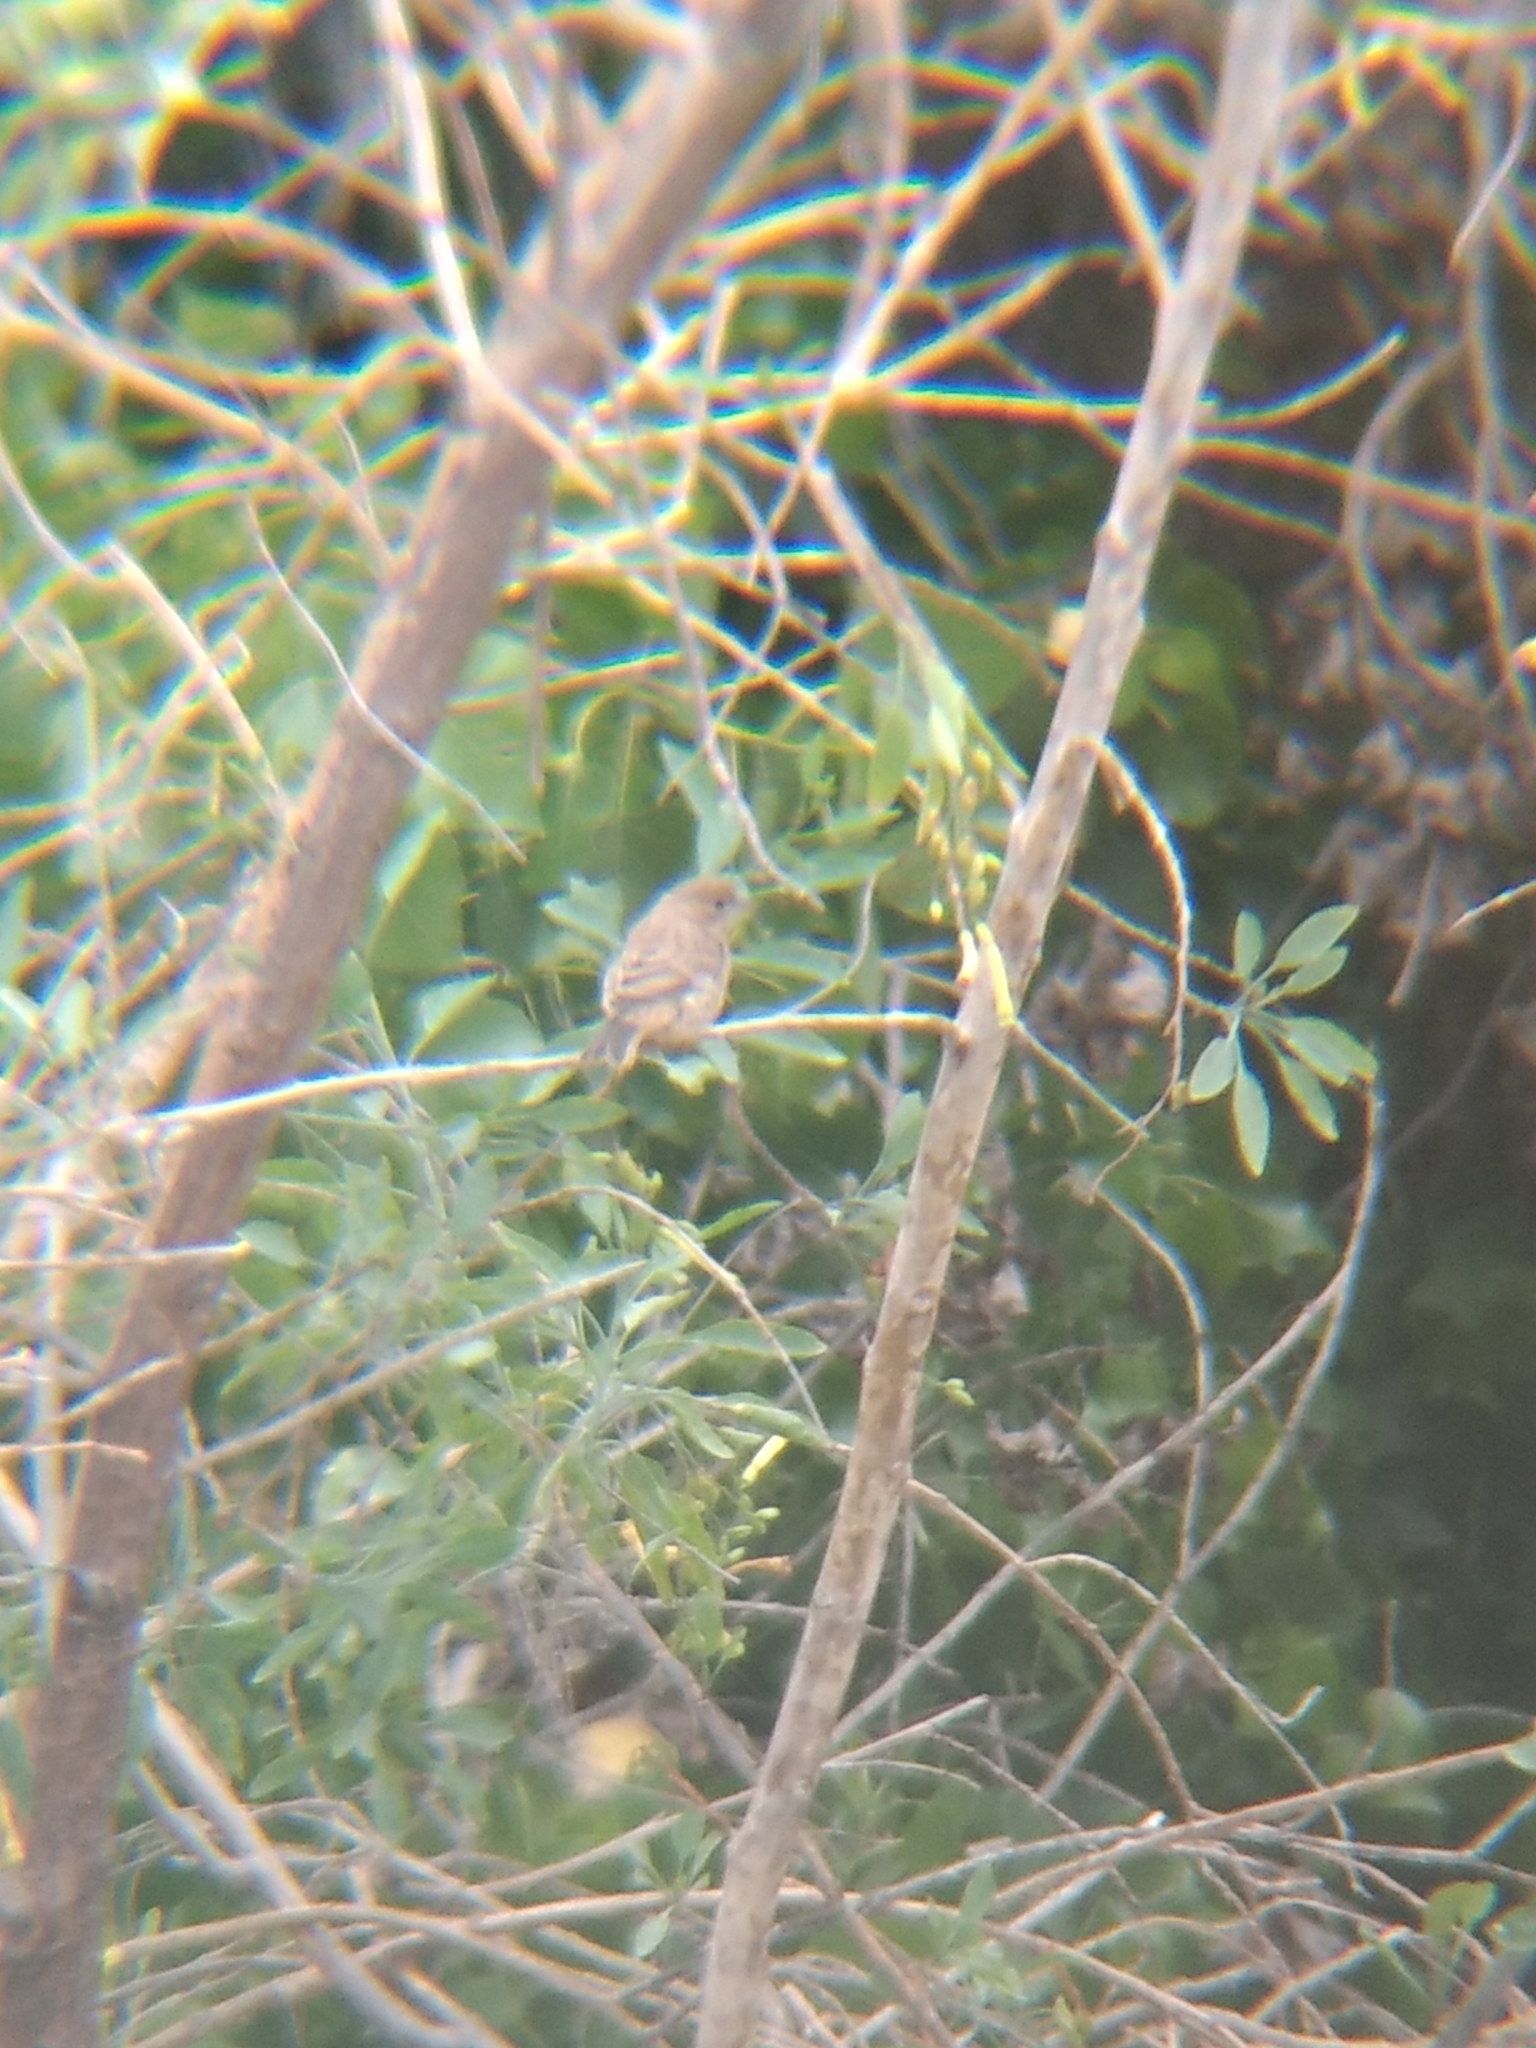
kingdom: Animalia
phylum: Chordata
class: Aves
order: Passeriformes
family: Fringillidae
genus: Haemorhous
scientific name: Haemorhous mexicanus
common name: House finch
